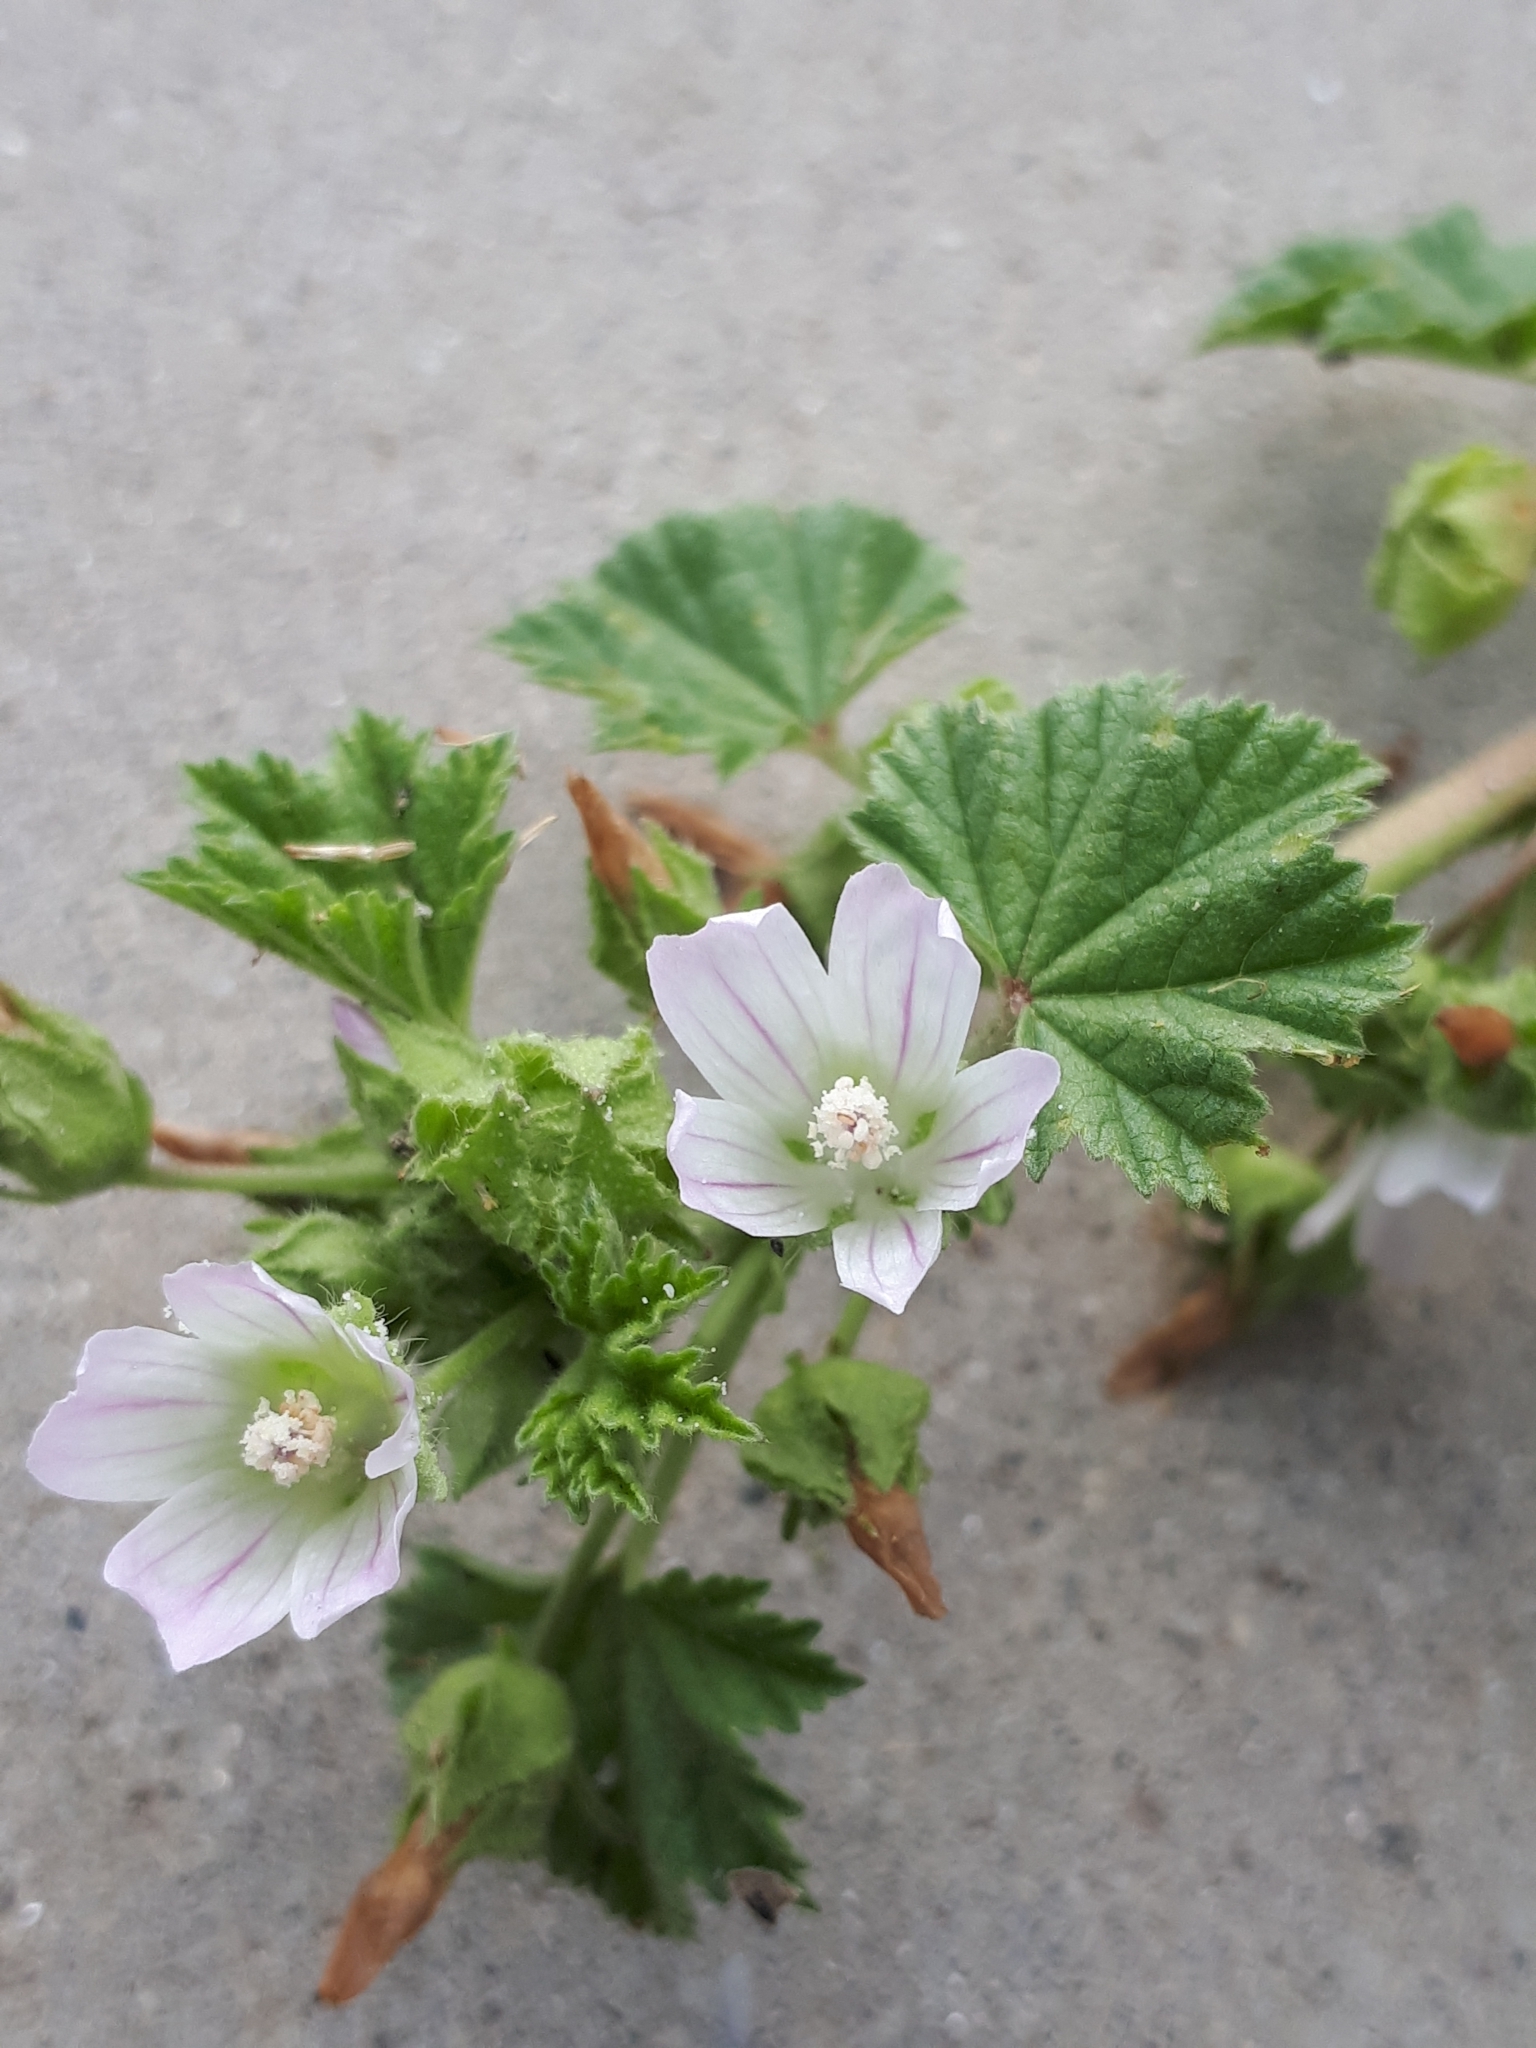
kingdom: Plantae
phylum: Tracheophyta
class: Magnoliopsida
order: Malvales
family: Malvaceae
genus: Malva
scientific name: Malva neglecta
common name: Common mallow
